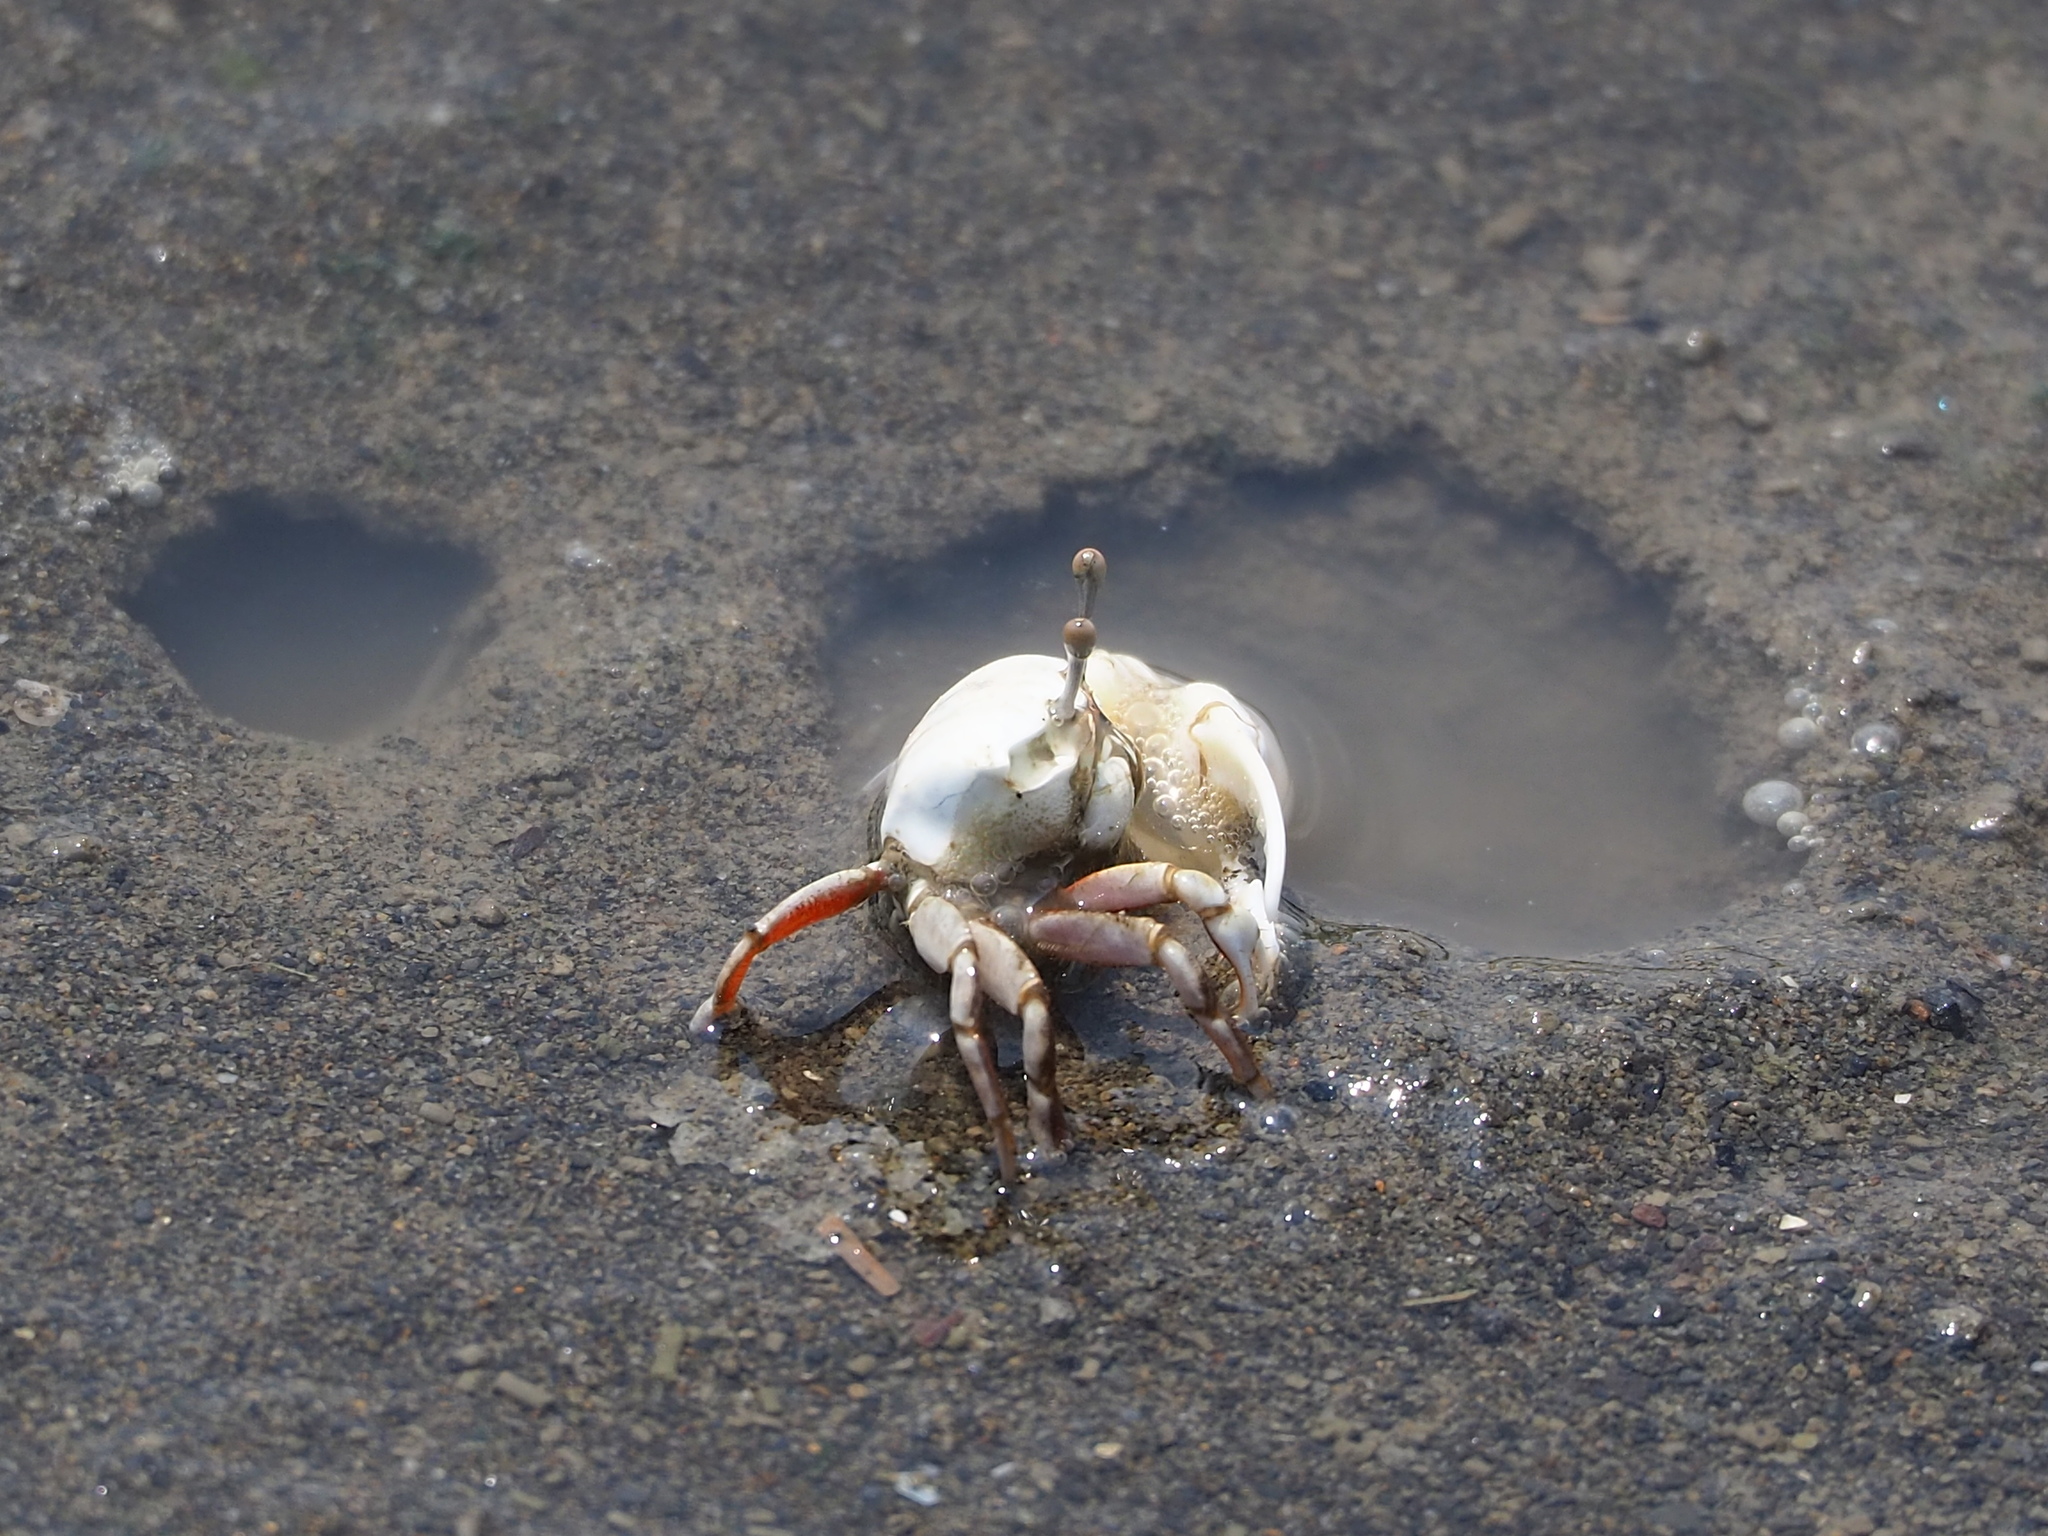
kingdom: Animalia
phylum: Arthropoda
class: Malacostraca
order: Decapoda
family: Ocypodidae
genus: Austruca
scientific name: Austruca lactea
